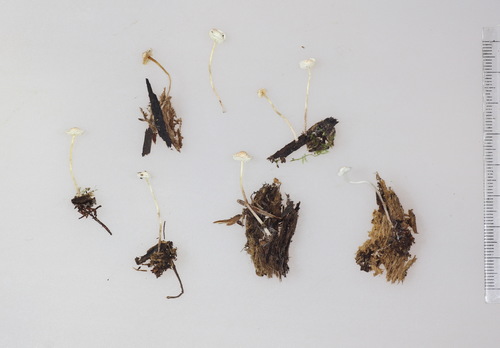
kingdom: Fungi
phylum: Basidiomycota
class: Agaricomycetes
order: Agaricales
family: Agaricaceae
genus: Cystolepiota
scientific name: Cystolepiota seminuda
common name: Bearded dapperling
